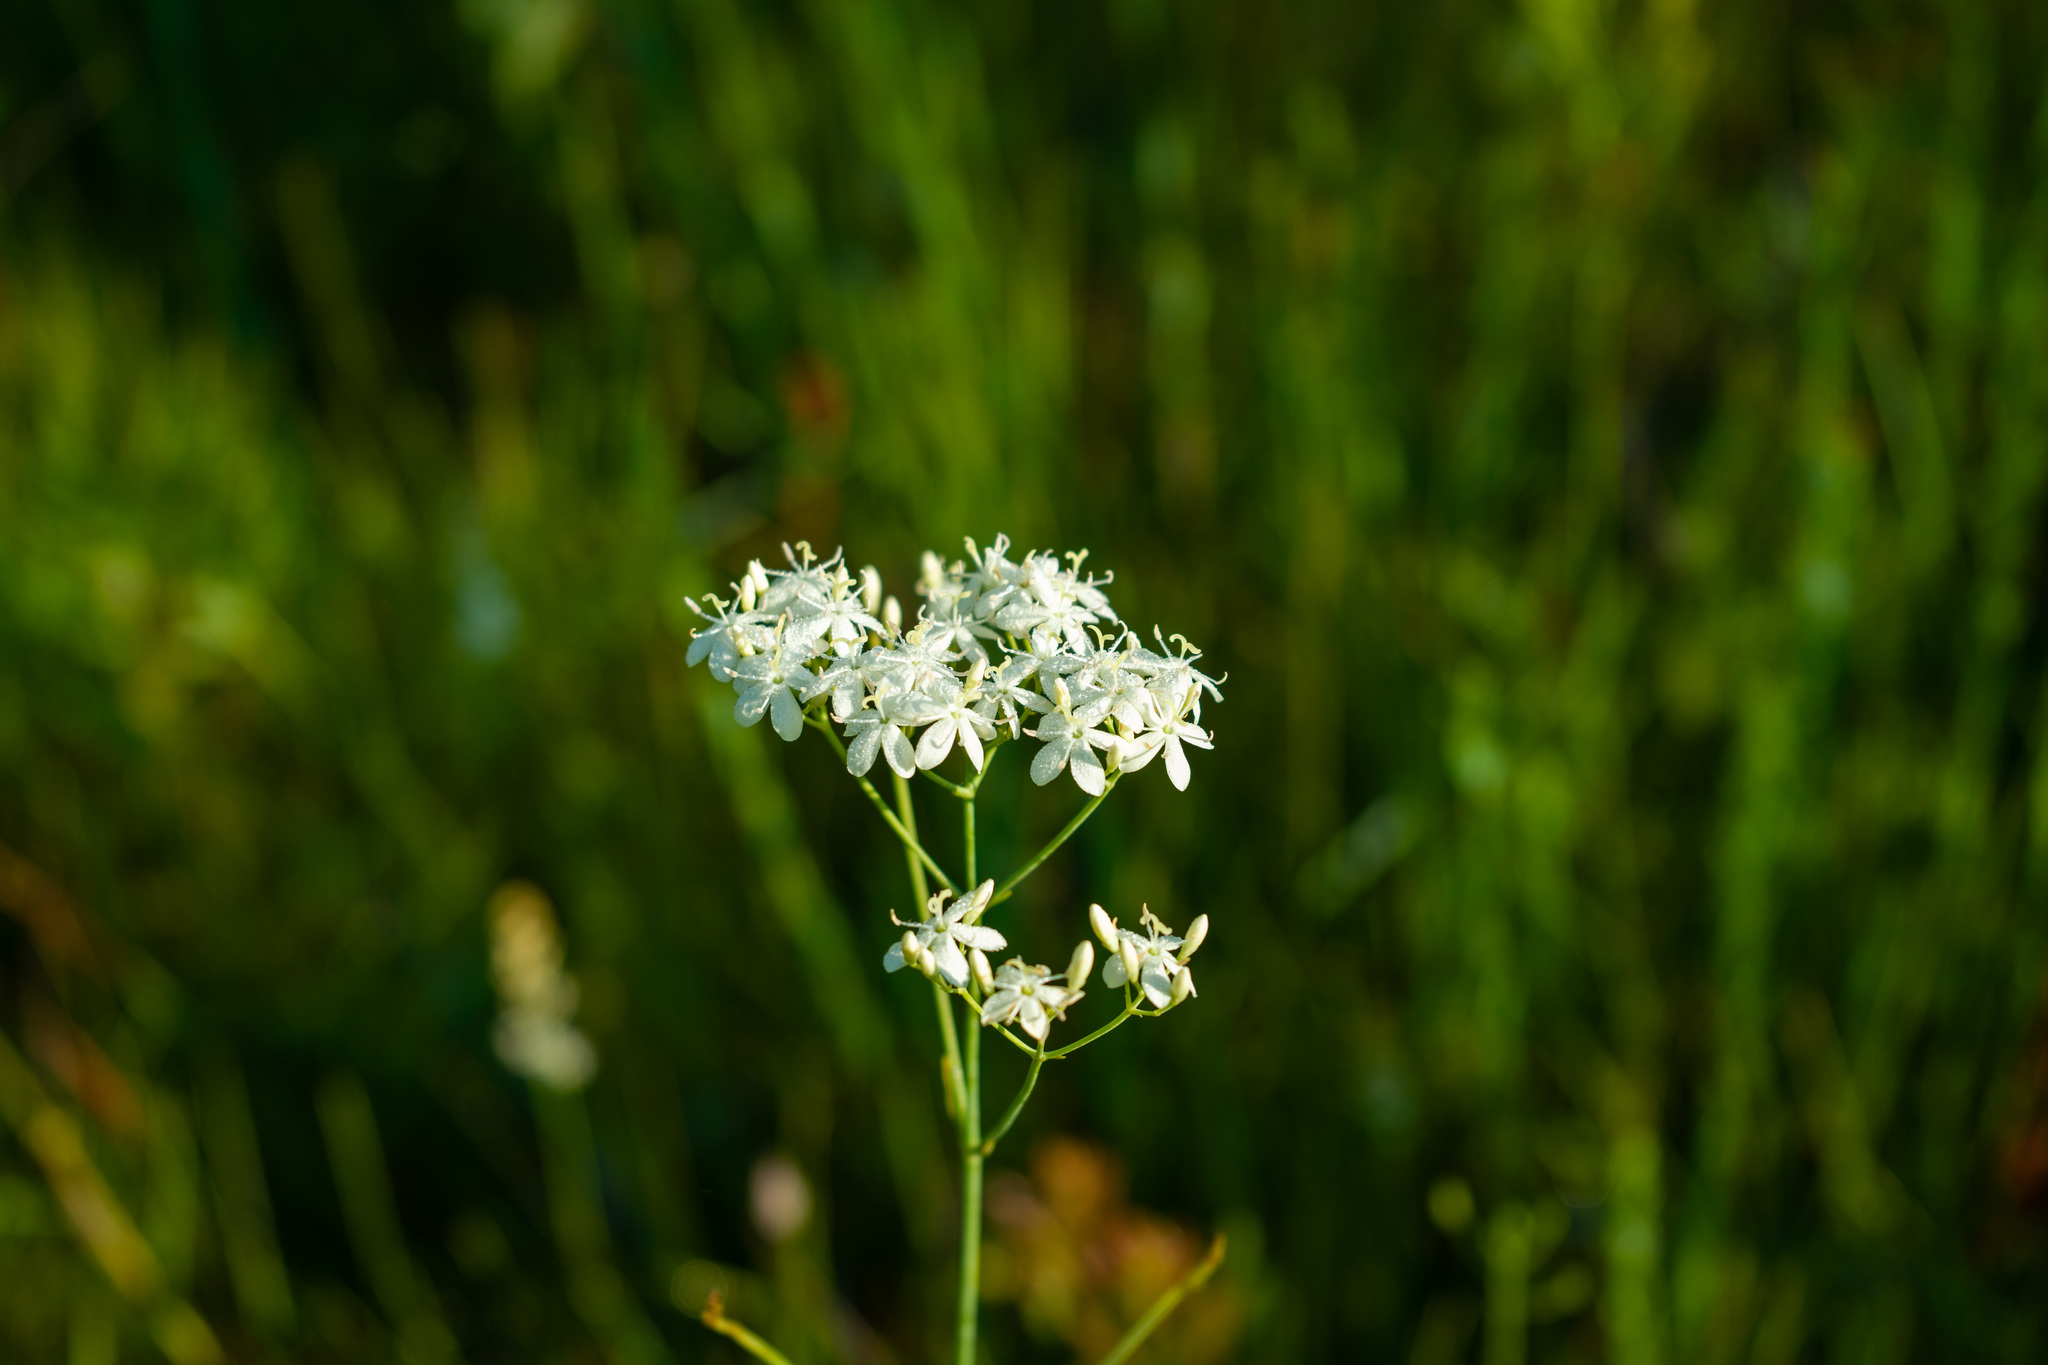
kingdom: Plantae
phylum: Tracheophyta
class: Magnoliopsida
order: Gentianales
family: Gentianaceae
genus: Sabatia
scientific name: Sabatia macrophylla
